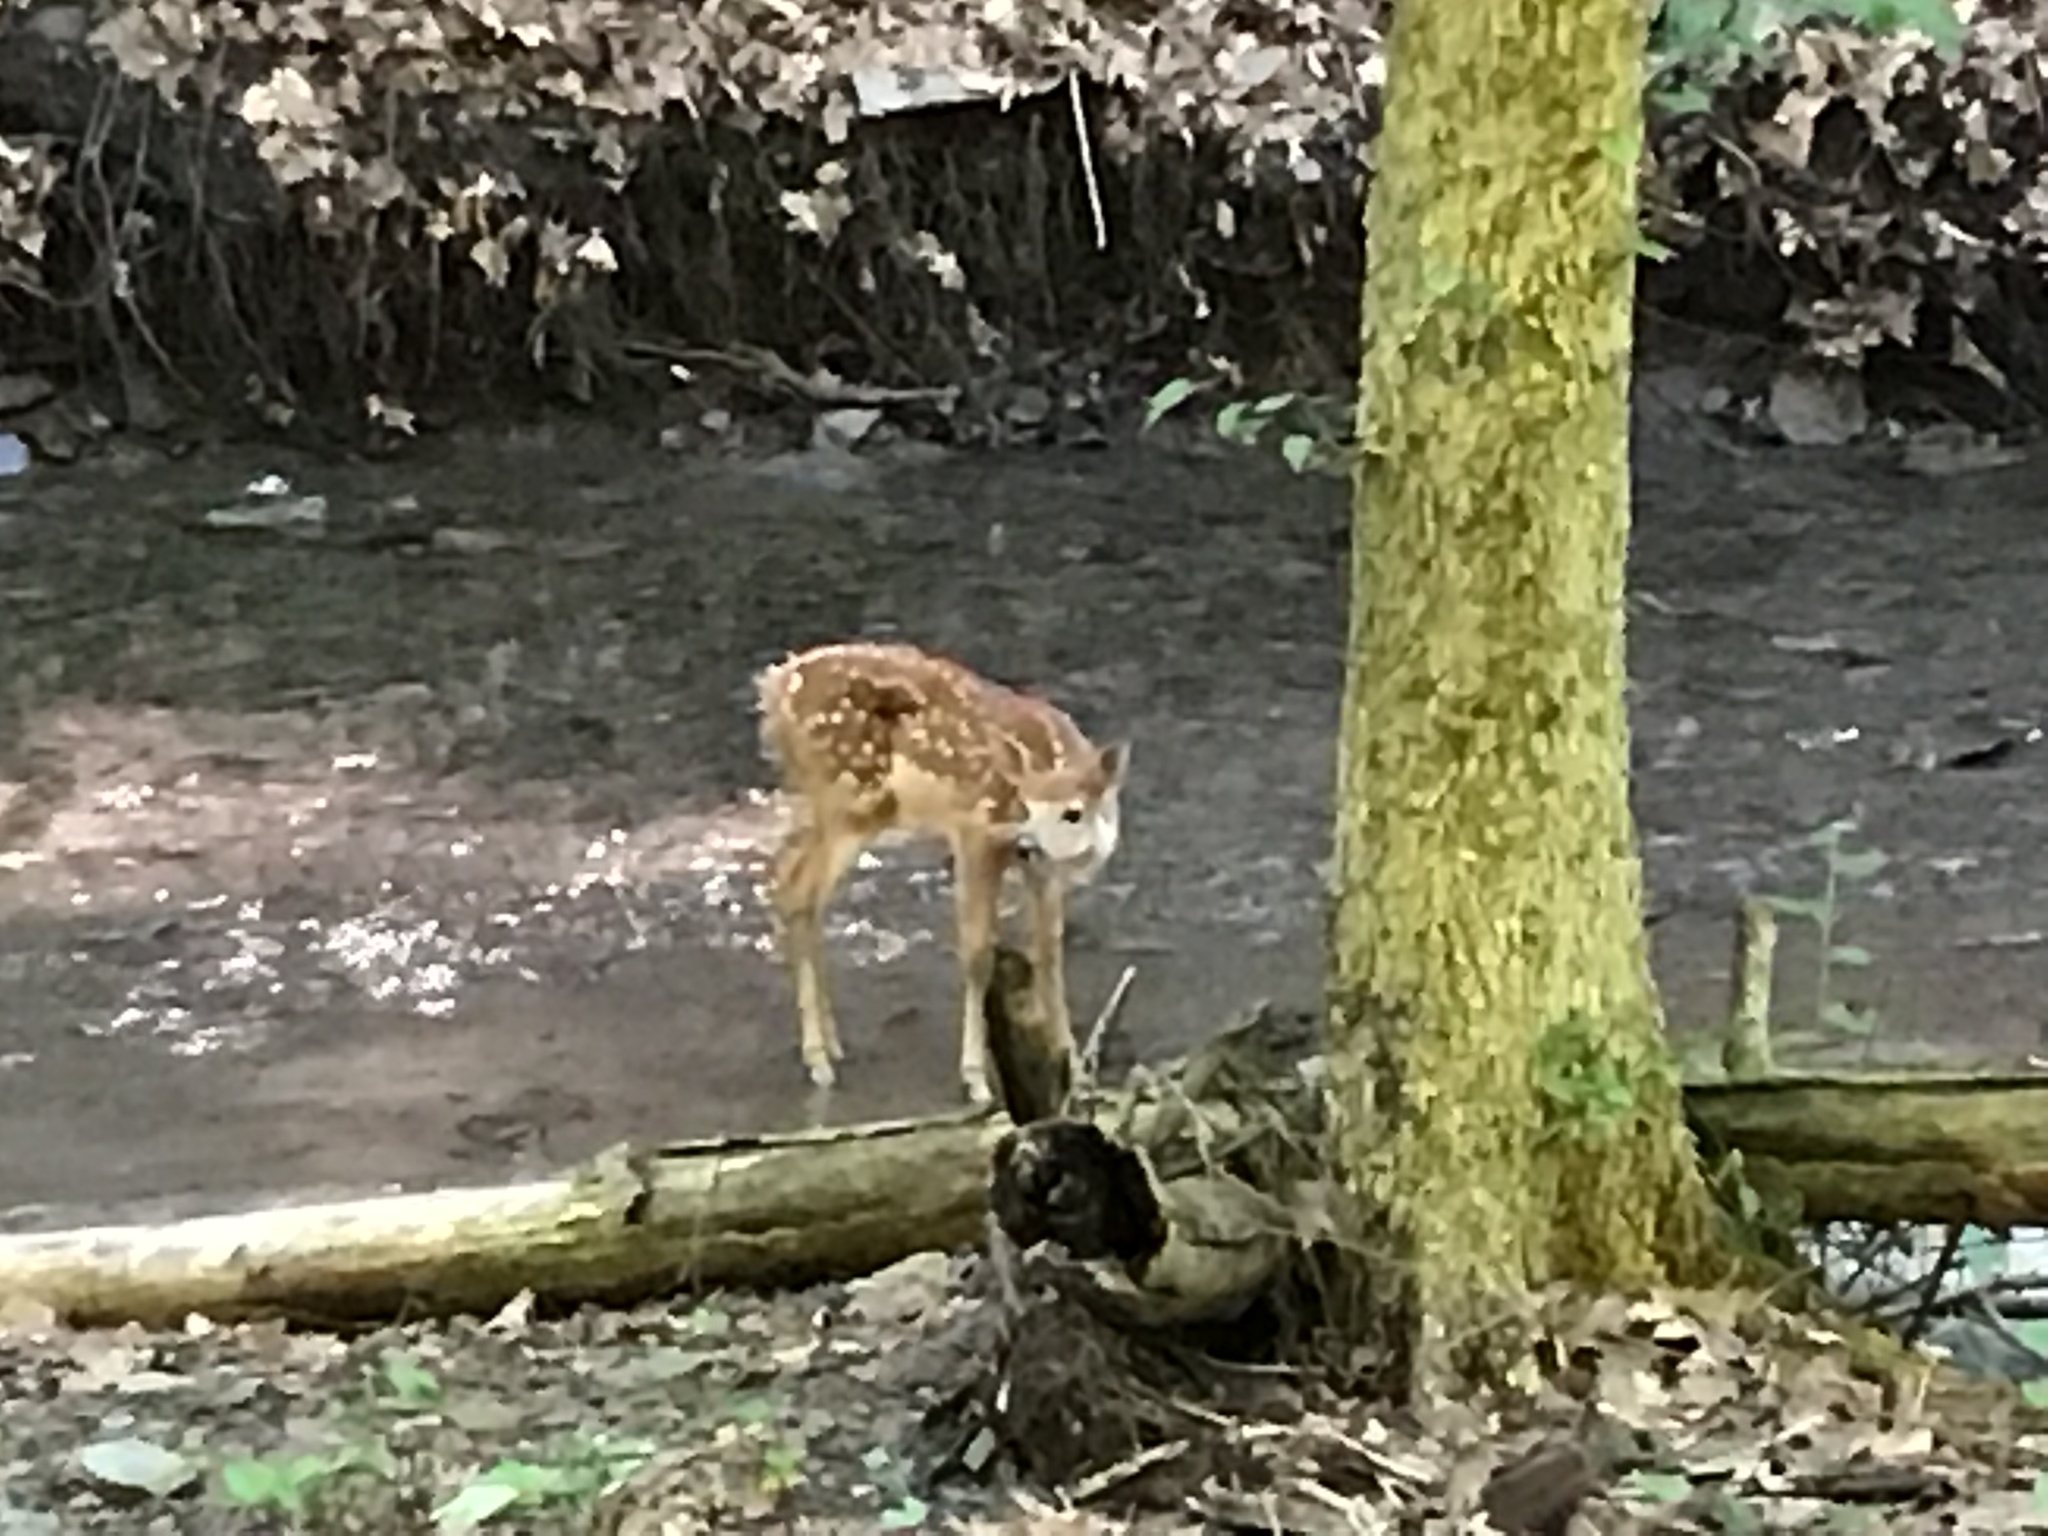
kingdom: Animalia
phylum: Chordata
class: Mammalia
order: Artiodactyla
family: Cervidae
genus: Odocoileus
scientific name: Odocoileus virginianus
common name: White-tailed deer
